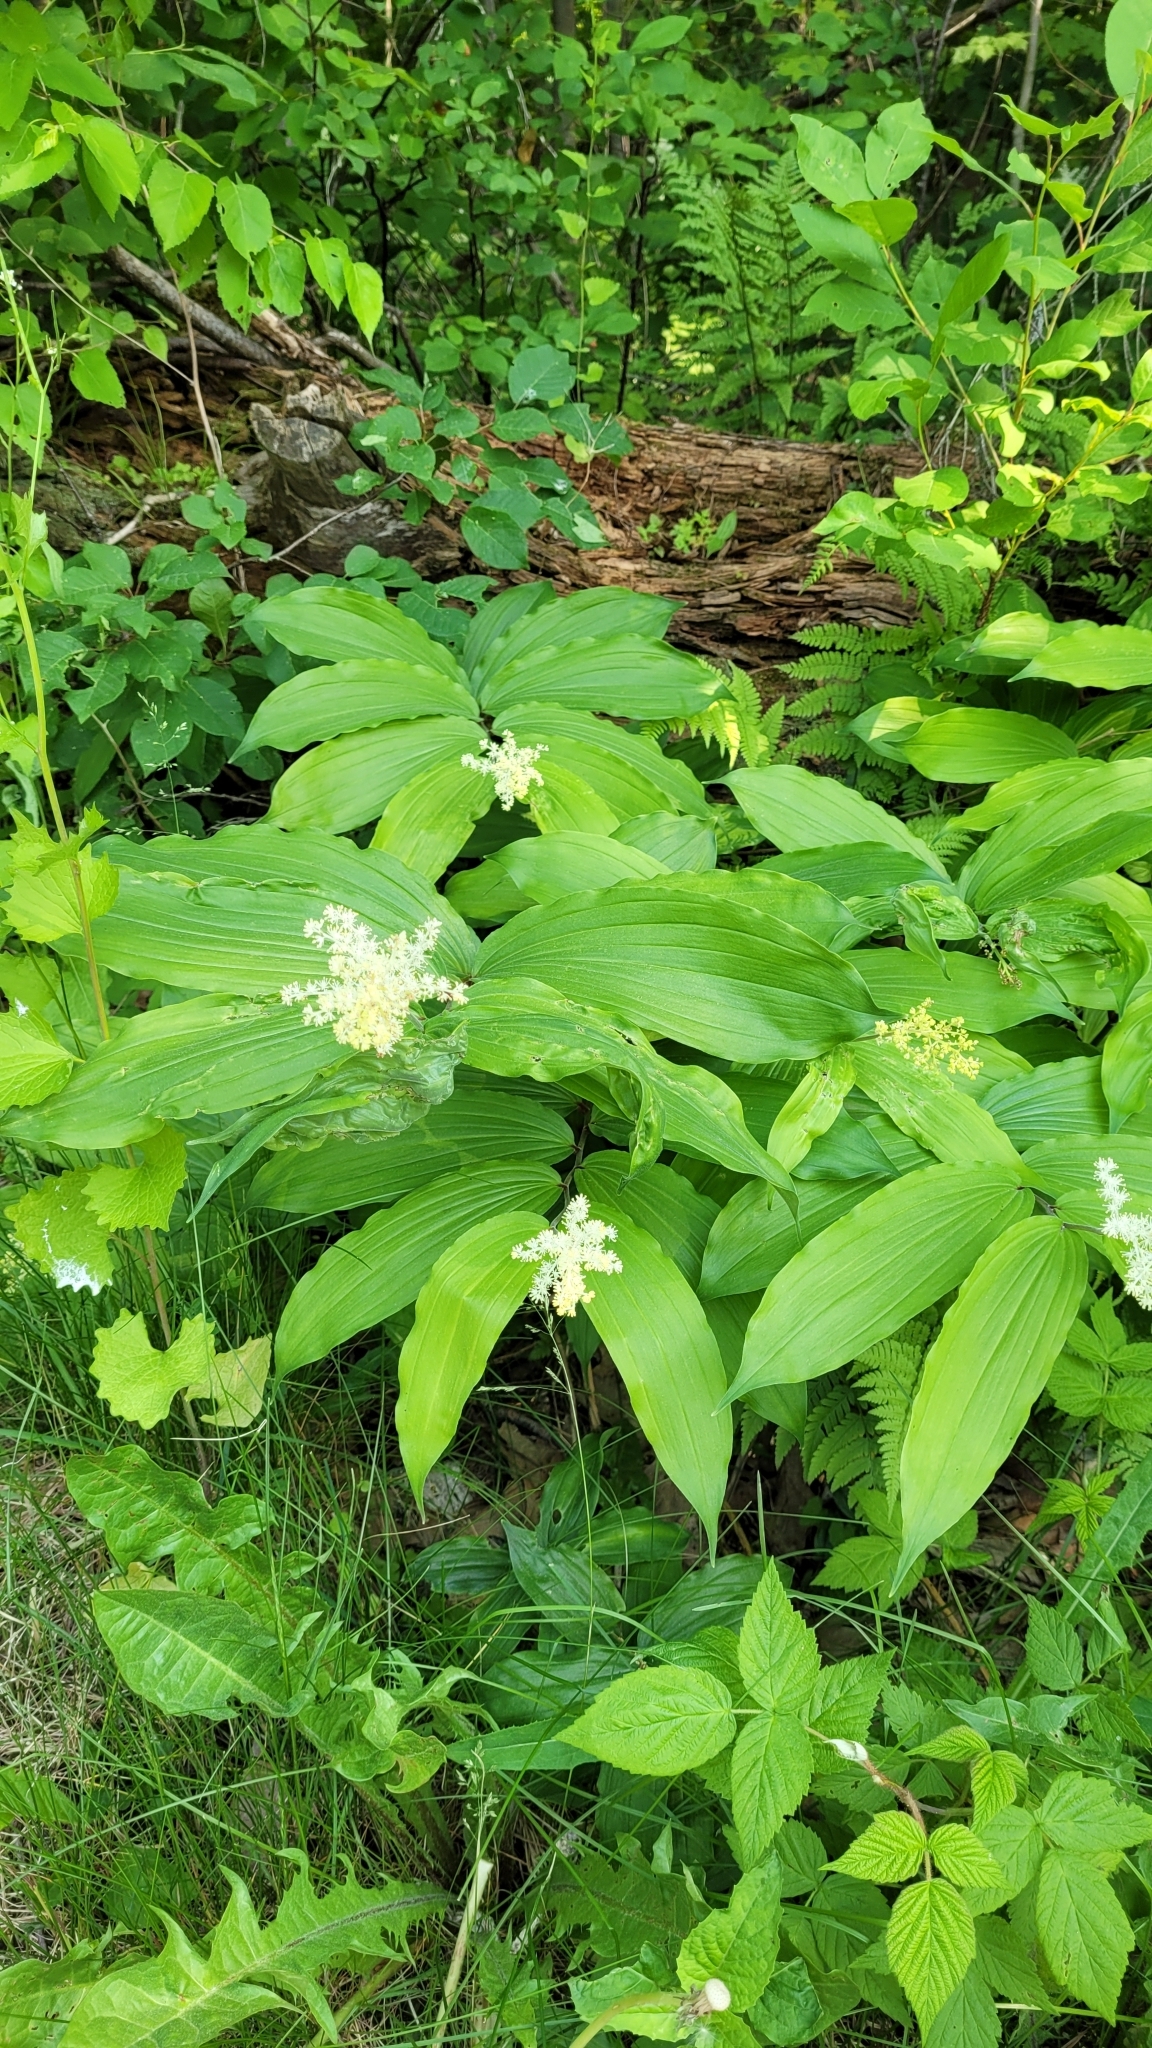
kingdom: Plantae
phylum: Tracheophyta
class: Liliopsida
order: Asparagales
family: Asparagaceae
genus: Maianthemum
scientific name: Maianthemum racemosum
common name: False spikenard
